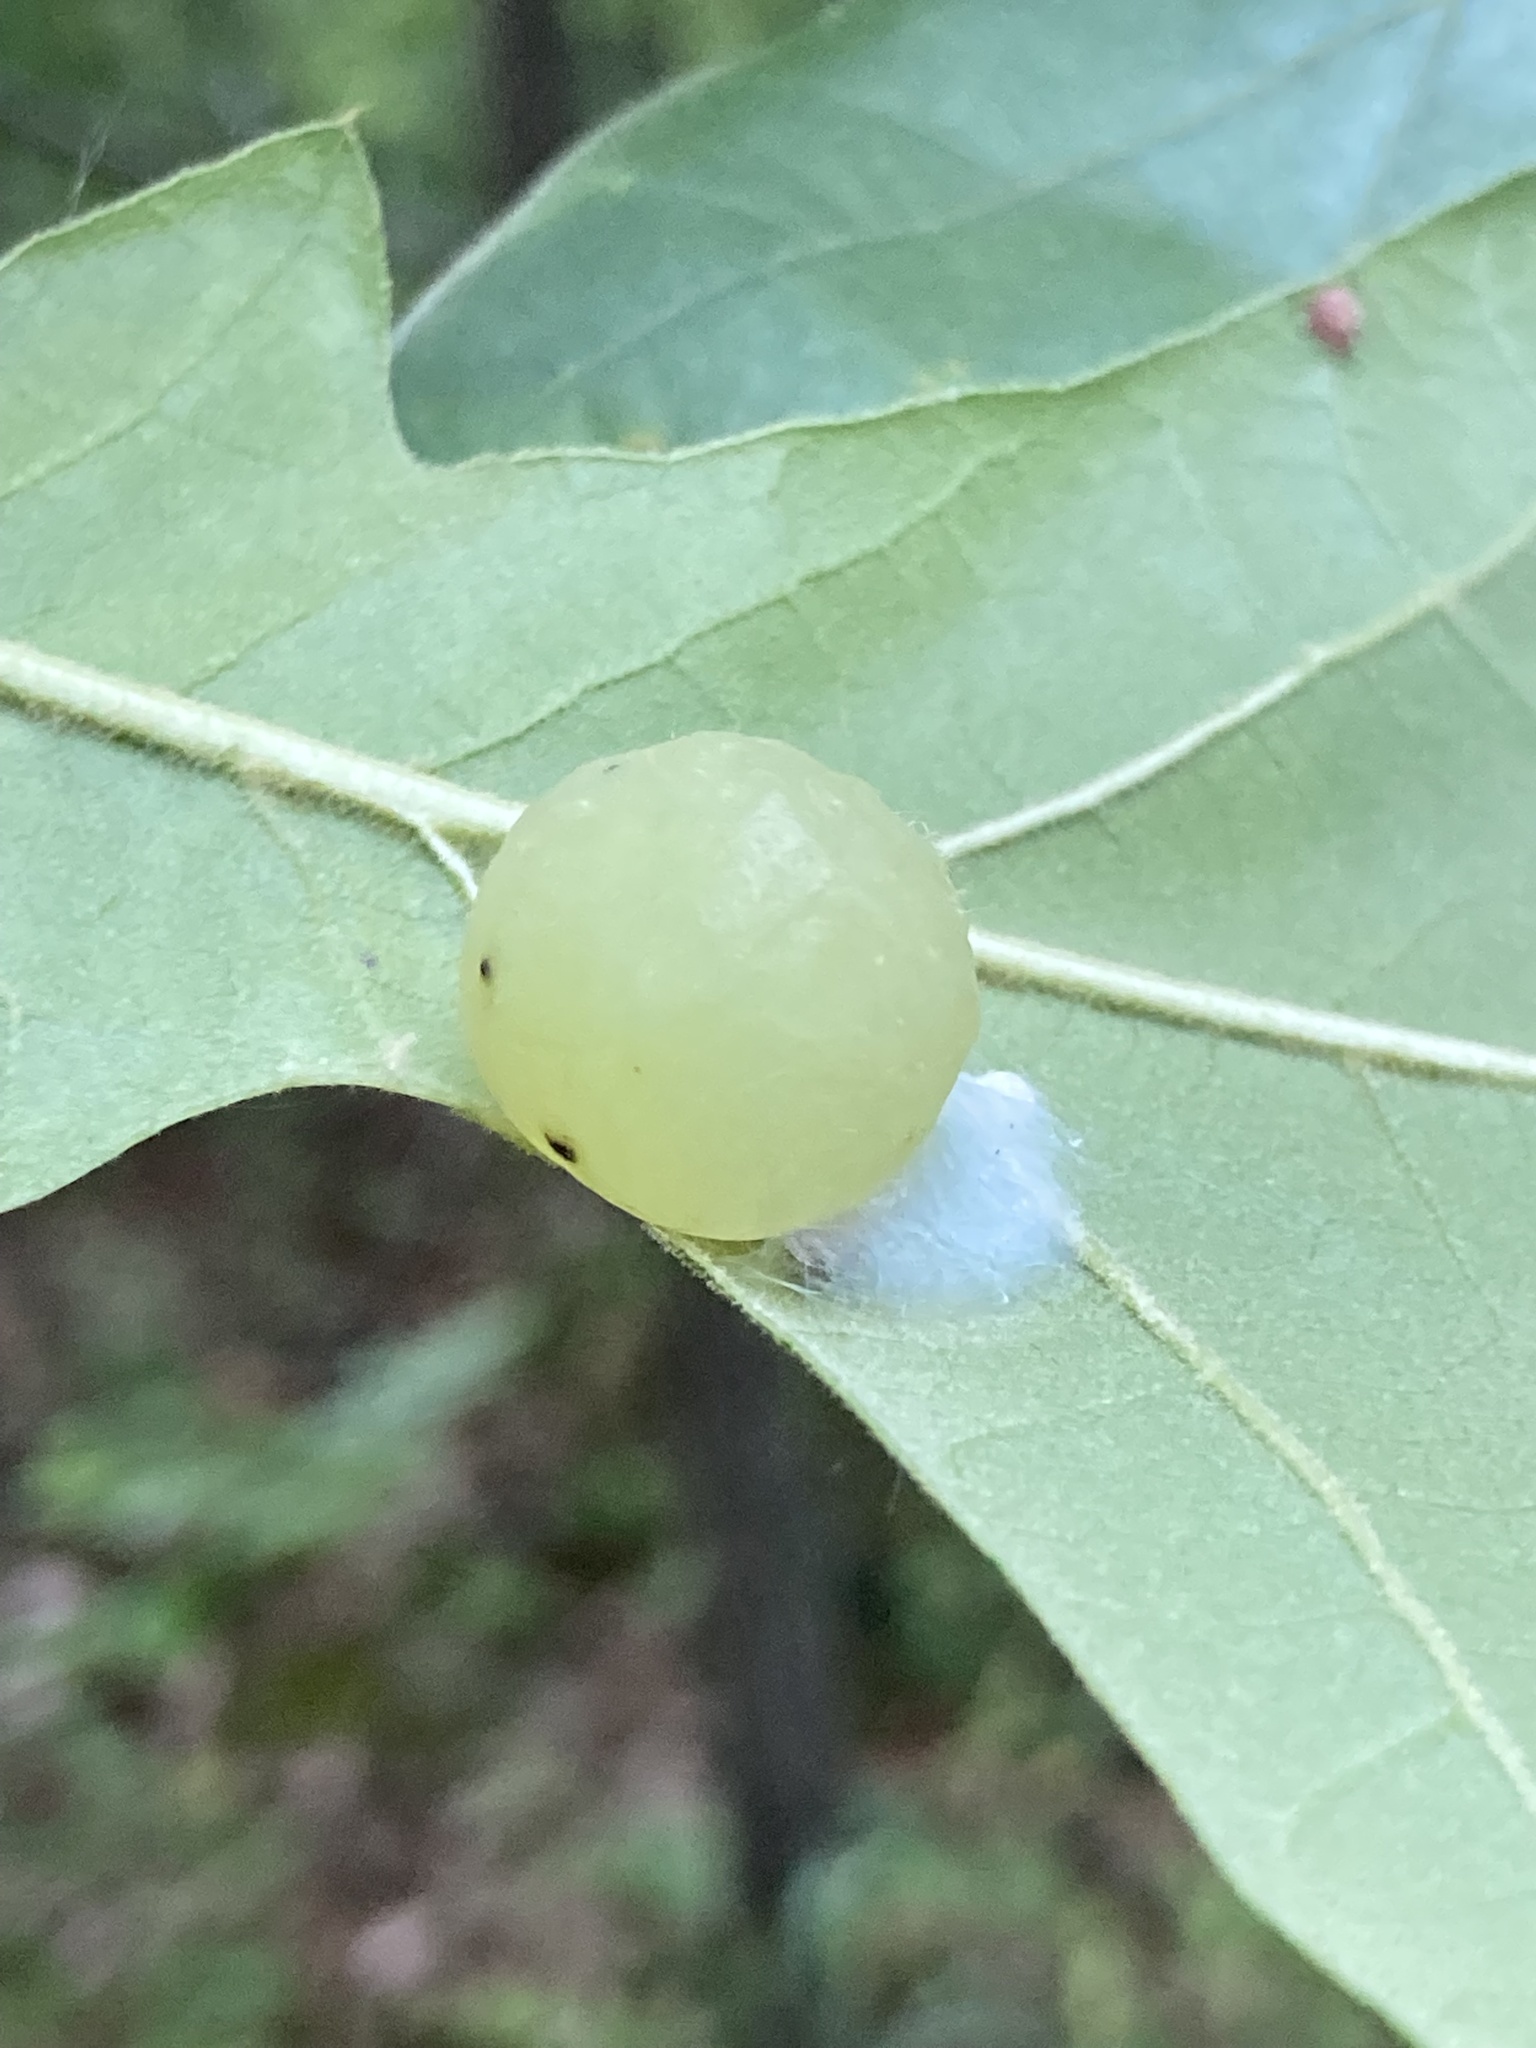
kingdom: Animalia
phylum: Arthropoda
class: Insecta
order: Hymenoptera
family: Cynipidae
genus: Amphibolips
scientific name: Amphibolips
